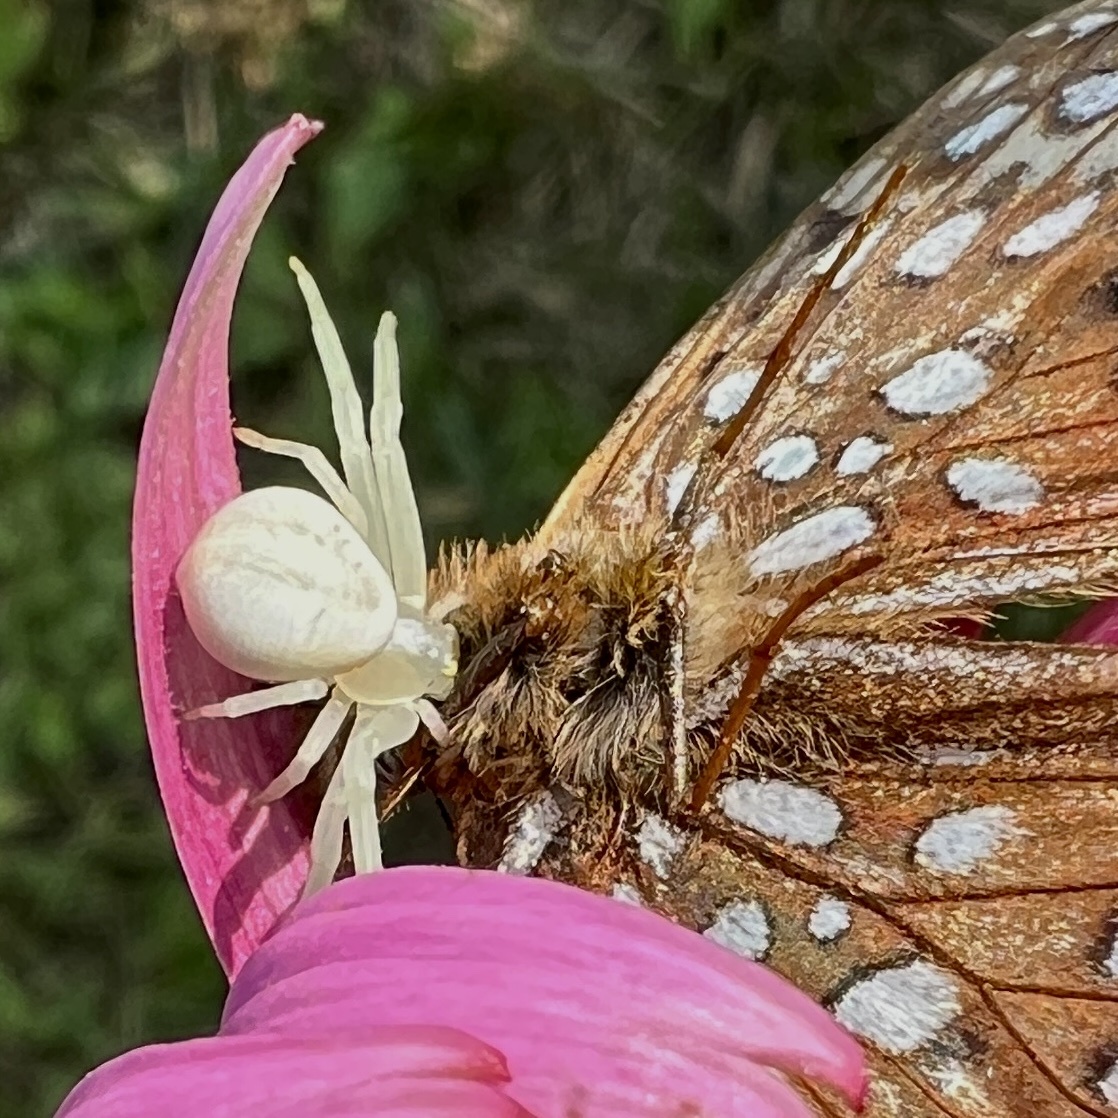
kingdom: Animalia
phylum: Arthropoda
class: Arachnida
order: Araneae
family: Thomisidae
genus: Misumena
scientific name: Misumena vatia
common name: Goldenrod crab spider
